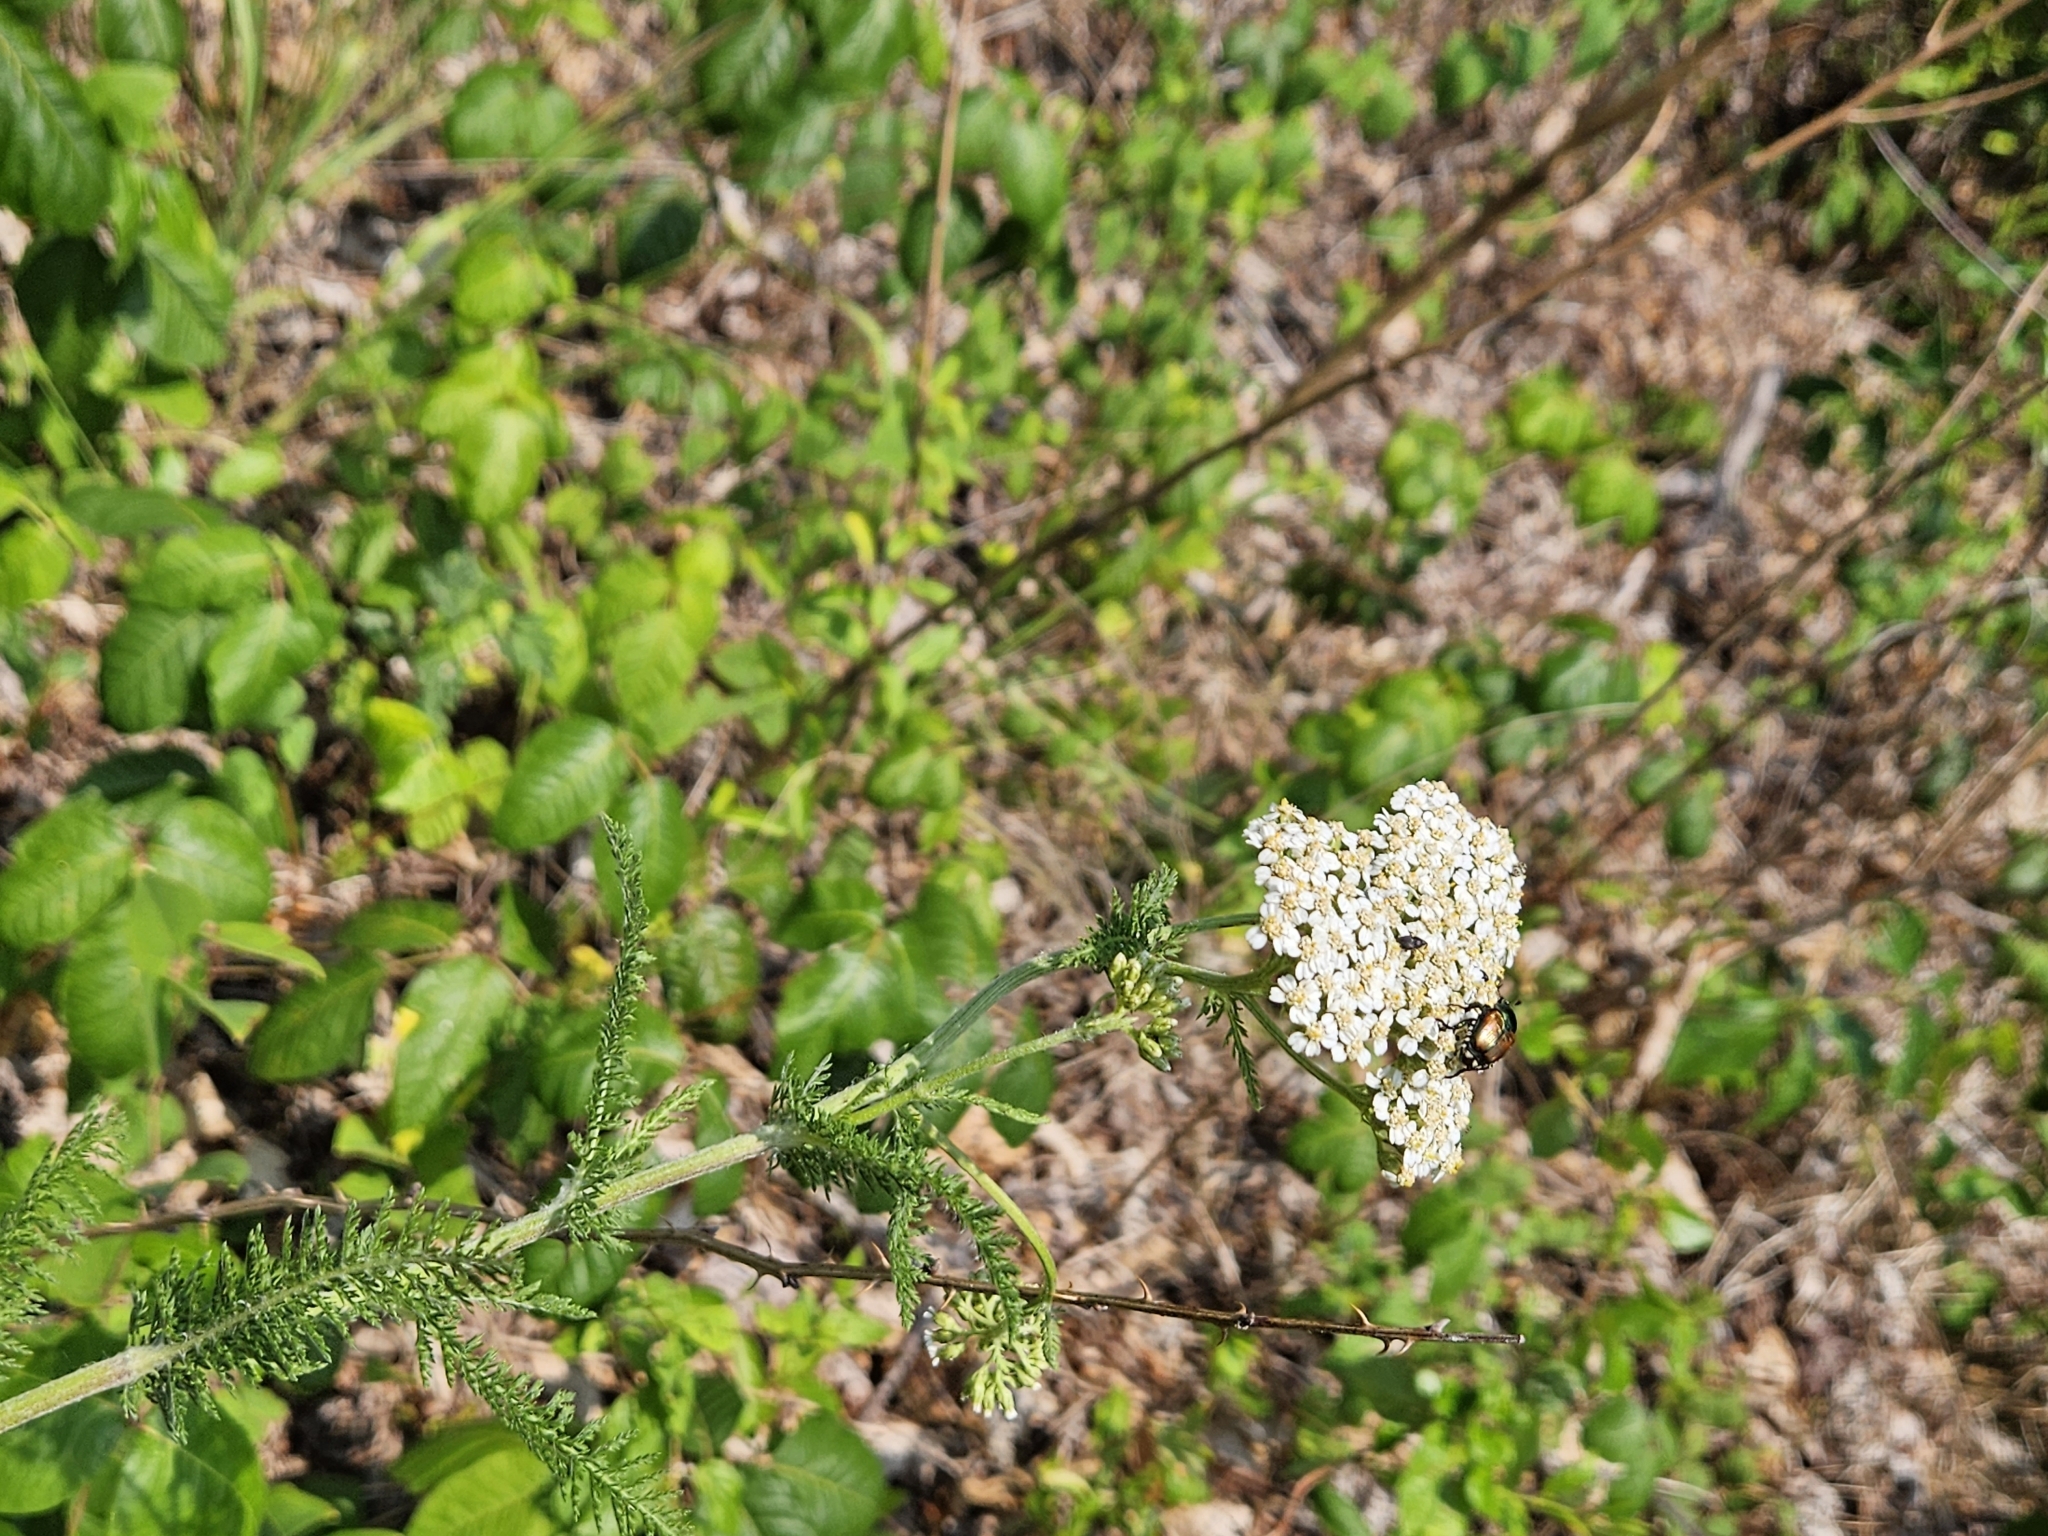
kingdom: Plantae
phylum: Tracheophyta
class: Magnoliopsida
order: Asterales
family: Asteraceae
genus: Achillea
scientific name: Achillea millefolium
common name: Yarrow
